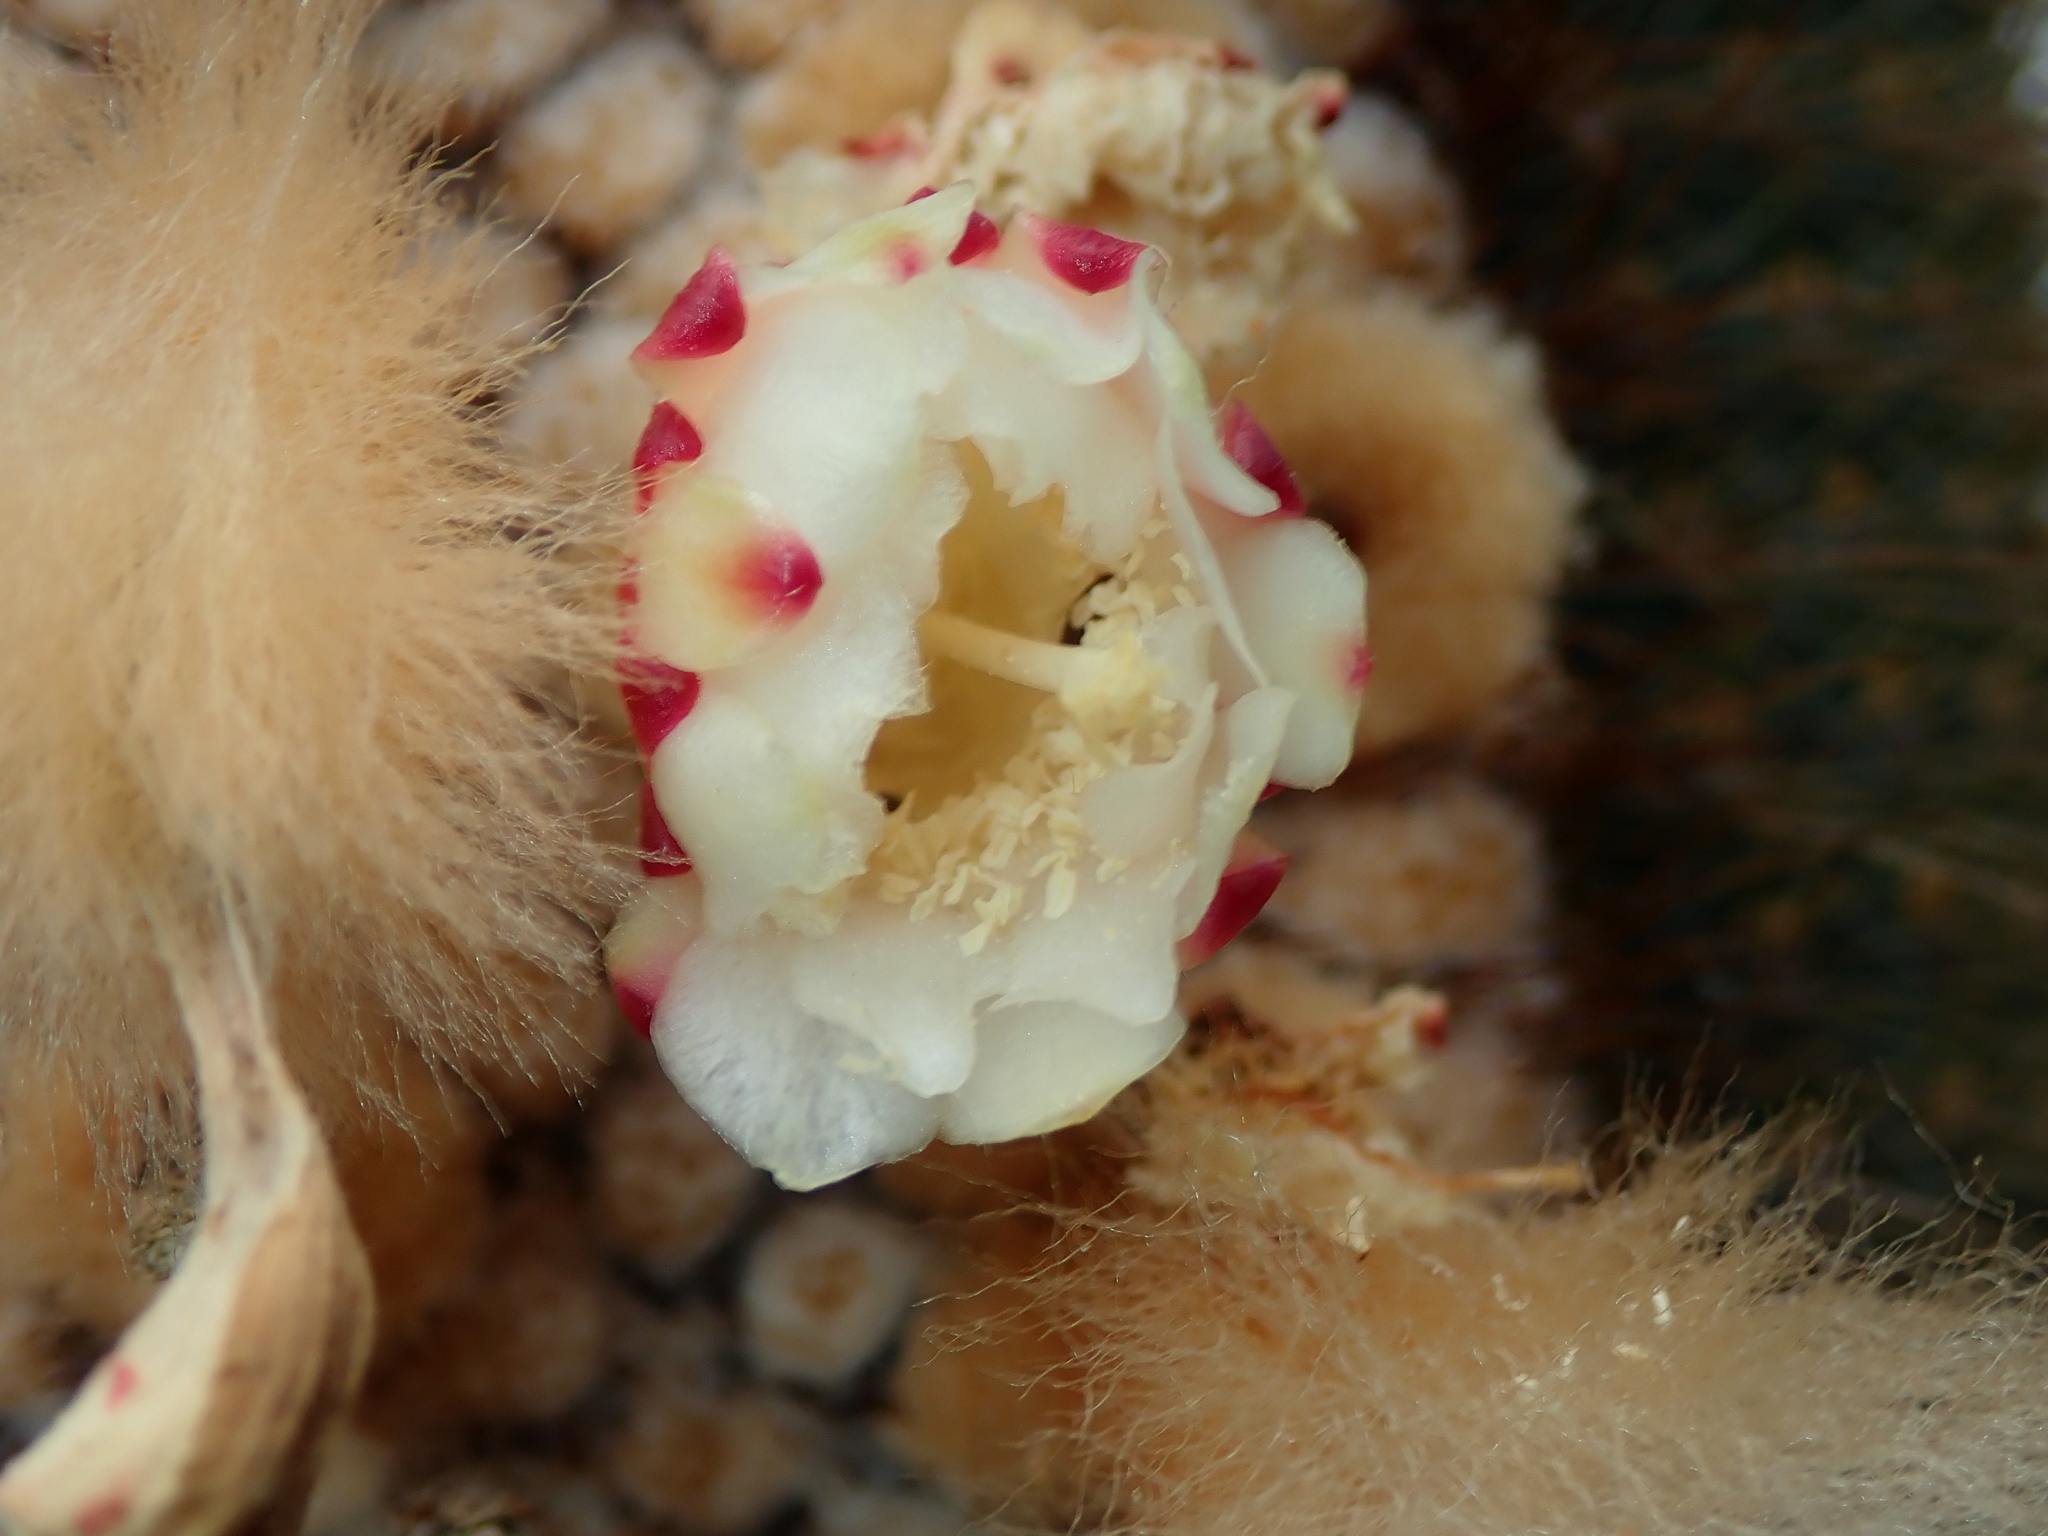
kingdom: Plantae
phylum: Tracheophyta
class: Magnoliopsida
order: Caryophyllales
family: Cactaceae
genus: Coleocephalocereus
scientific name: Coleocephalocereus
